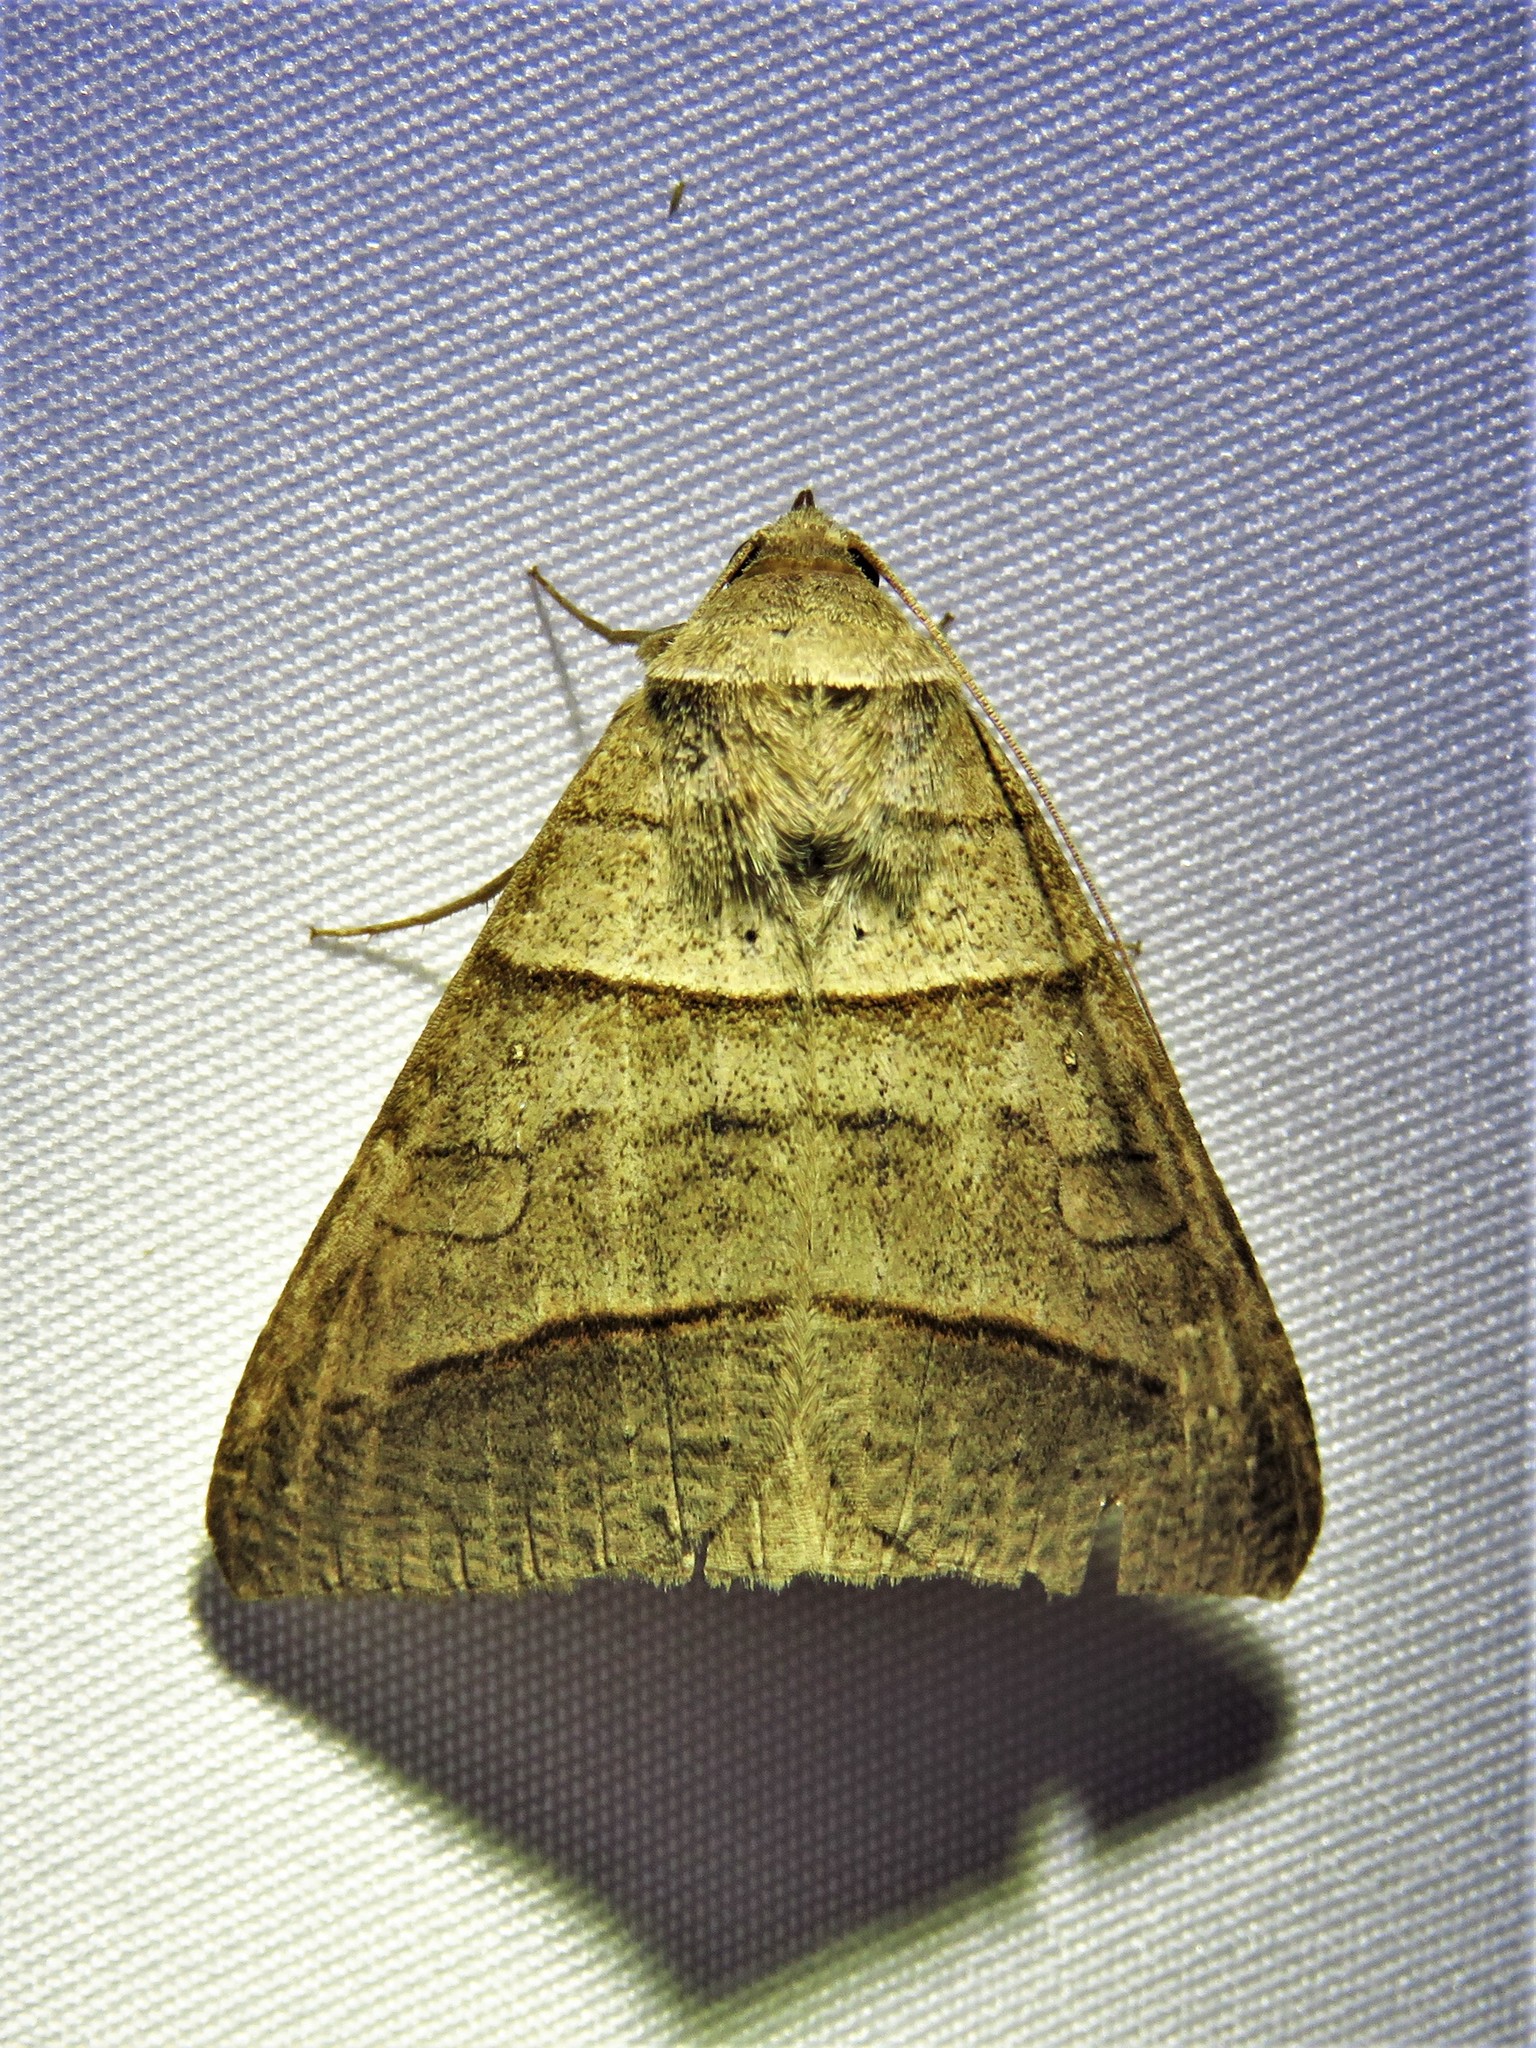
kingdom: Animalia
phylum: Arthropoda
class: Insecta
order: Lepidoptera
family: Erebidae
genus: Mocis
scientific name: Mocis texana
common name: Texas mocis moth
